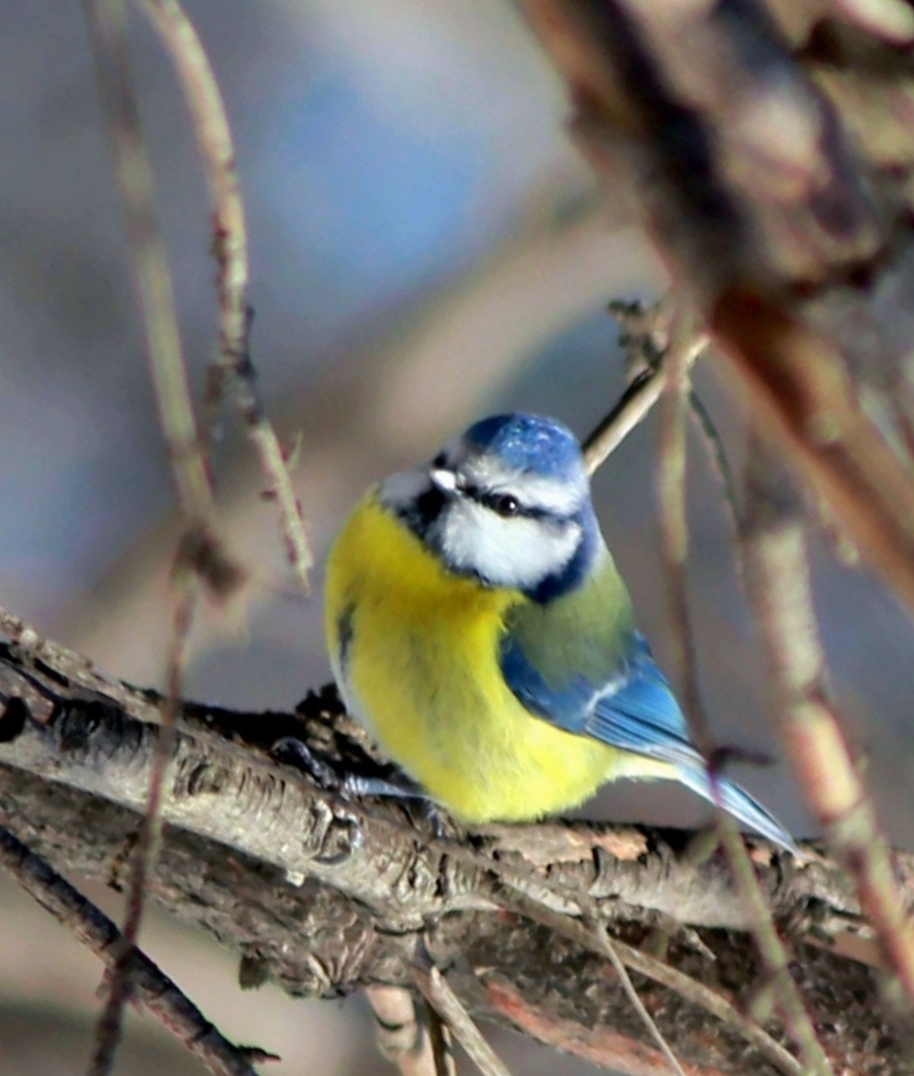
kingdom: Animalia
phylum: Chordata
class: Aves
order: Passeriformes
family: Paridae
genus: Cyanistes
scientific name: Cyanistes caeruleus
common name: Eurasian blue tit
